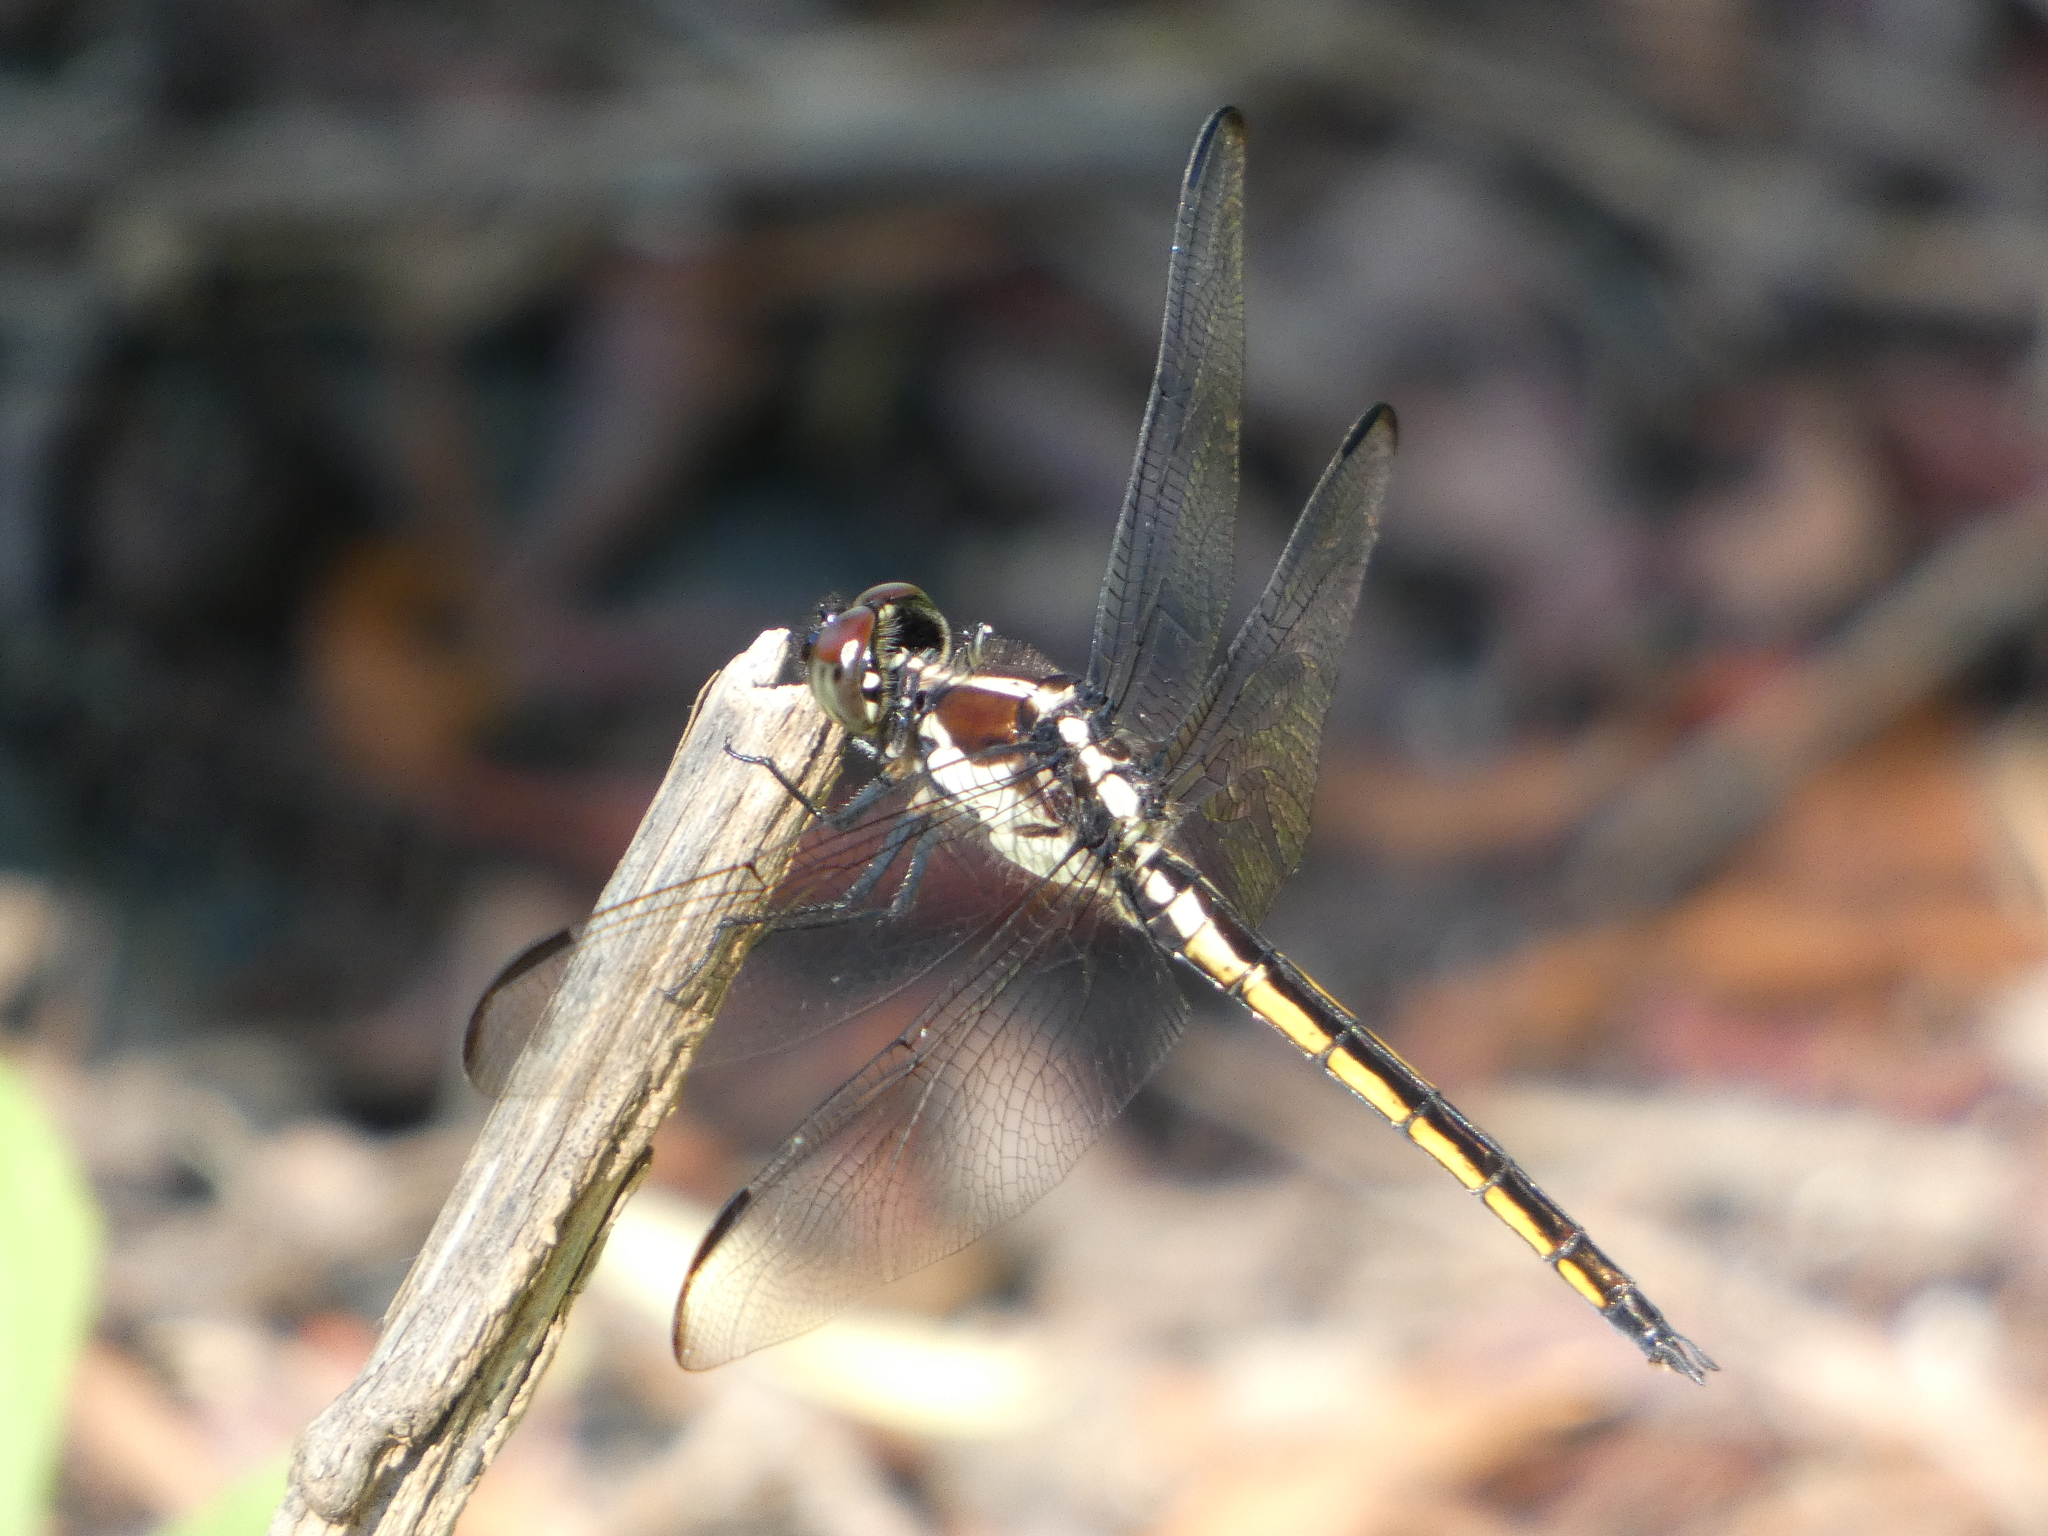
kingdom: Animalia
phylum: Arthropoda
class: Insecta
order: Odonata
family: Libellulidae
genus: Libellula
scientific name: Libellula incesta
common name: Slaty skimmer
